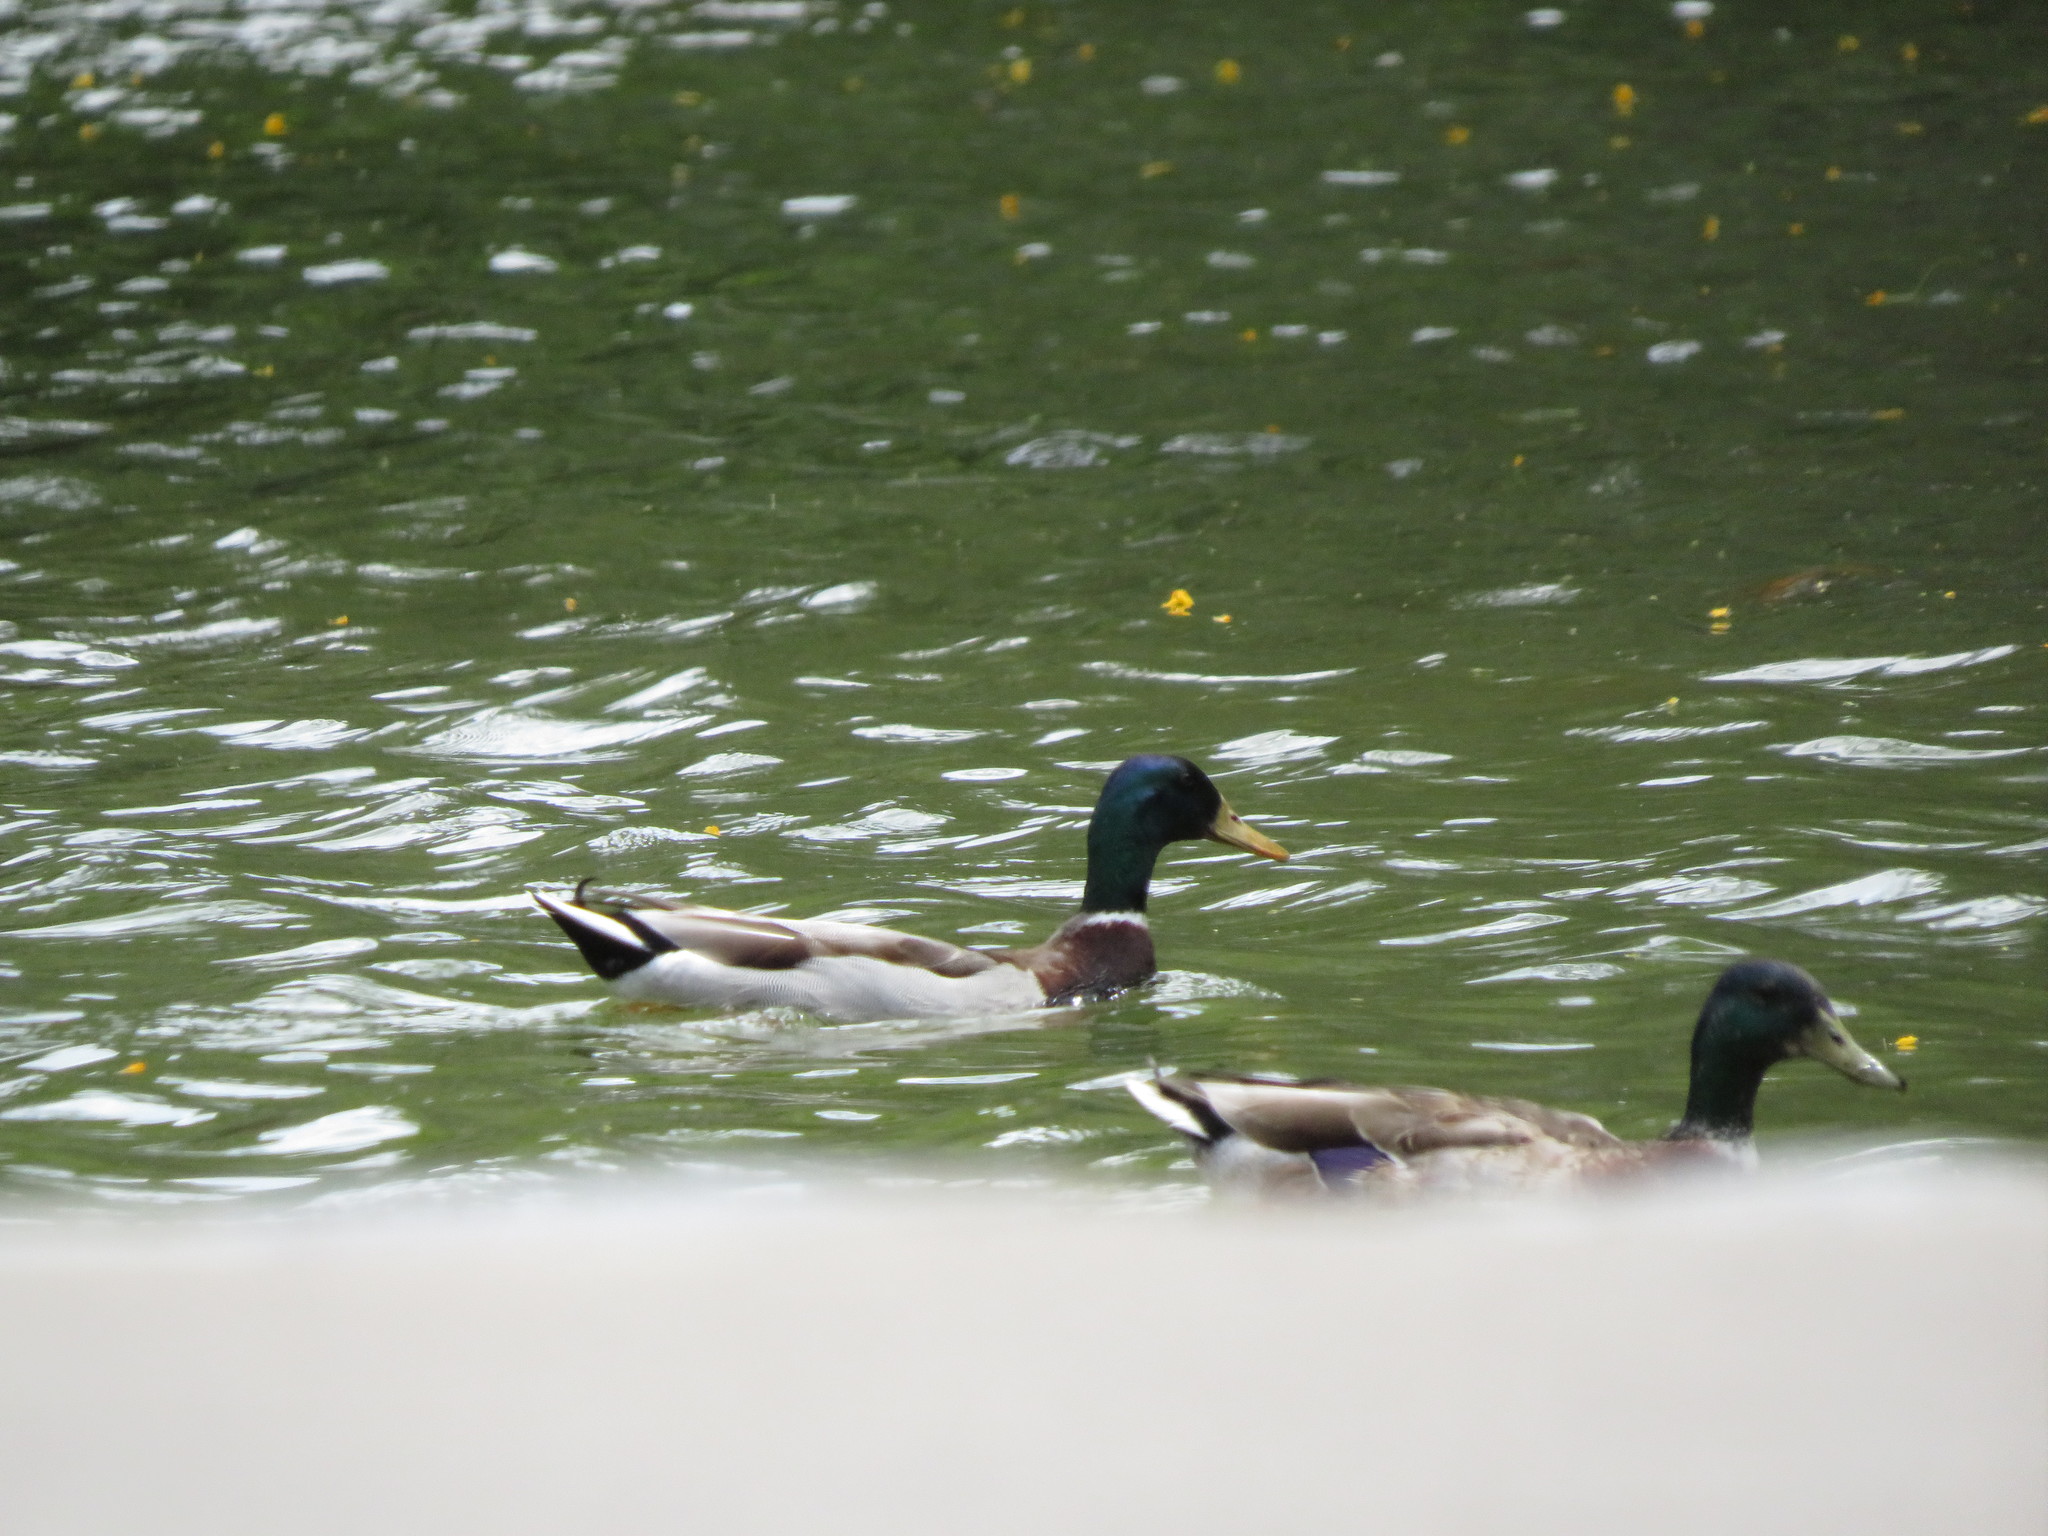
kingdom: Animalia
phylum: Chordata
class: Aves
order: Anseriformes
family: Anatidae
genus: Anas
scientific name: Anas platyrhynchos
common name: Mallard
